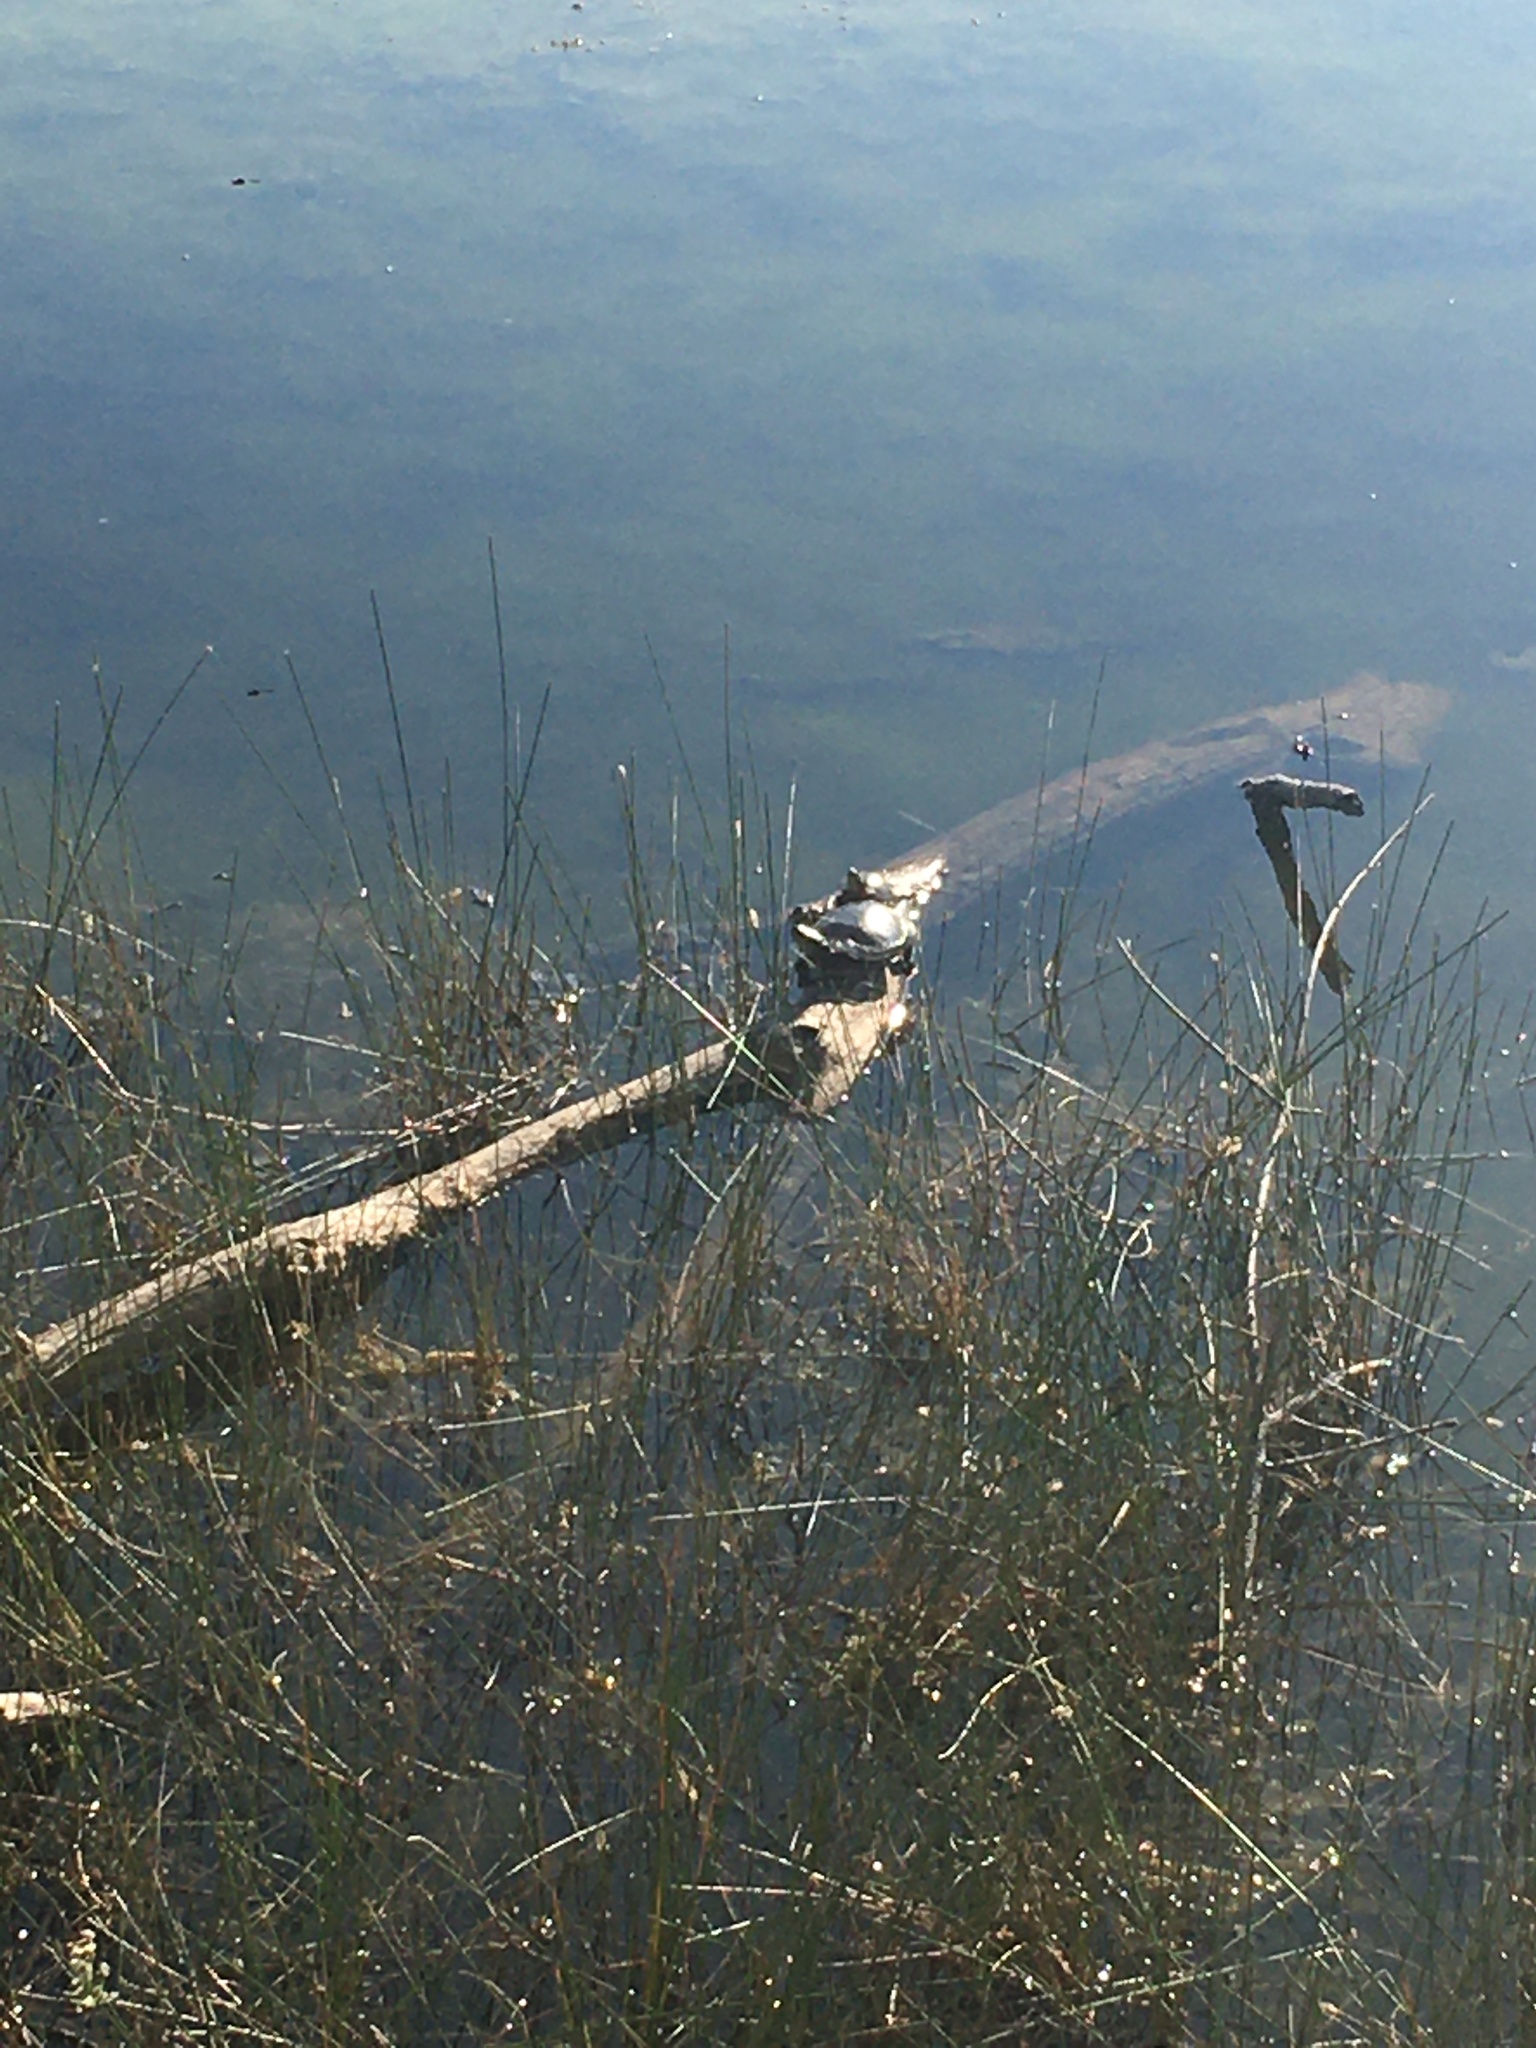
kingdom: Animalia
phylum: Chordata
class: Testudines
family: Emydidae
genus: Chrysemys
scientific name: Chrysemys picta
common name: Painted turtle
